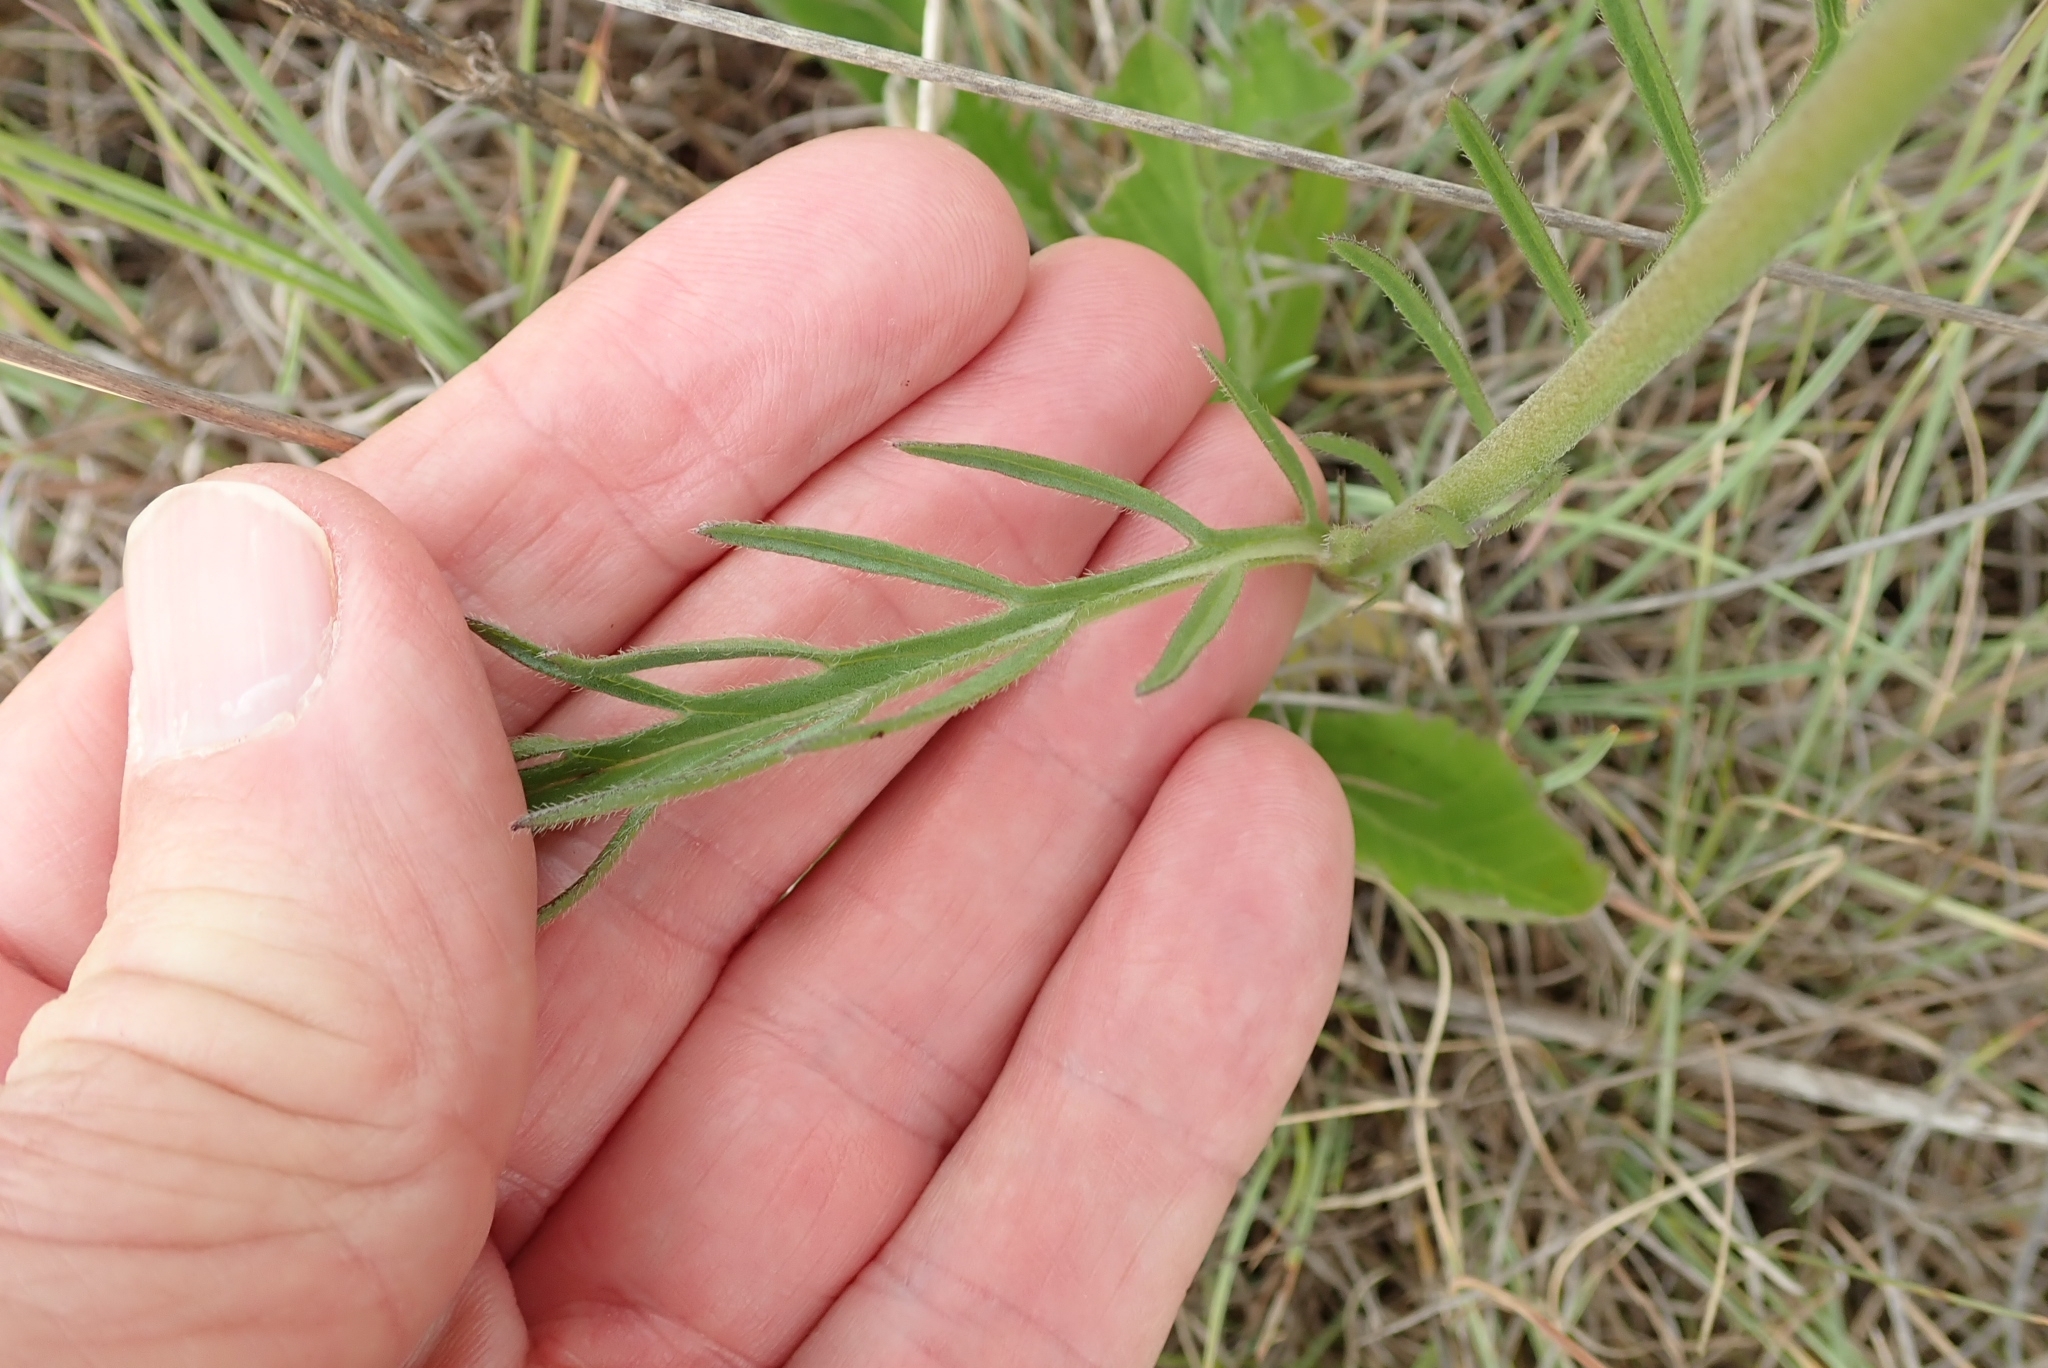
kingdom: Plantae
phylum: Tracheophyta
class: Magnoliopsida
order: Dipsacales
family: Caprifoliaceae
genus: Scabiosa
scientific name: Scabiosa columbaria
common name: Small scabious
